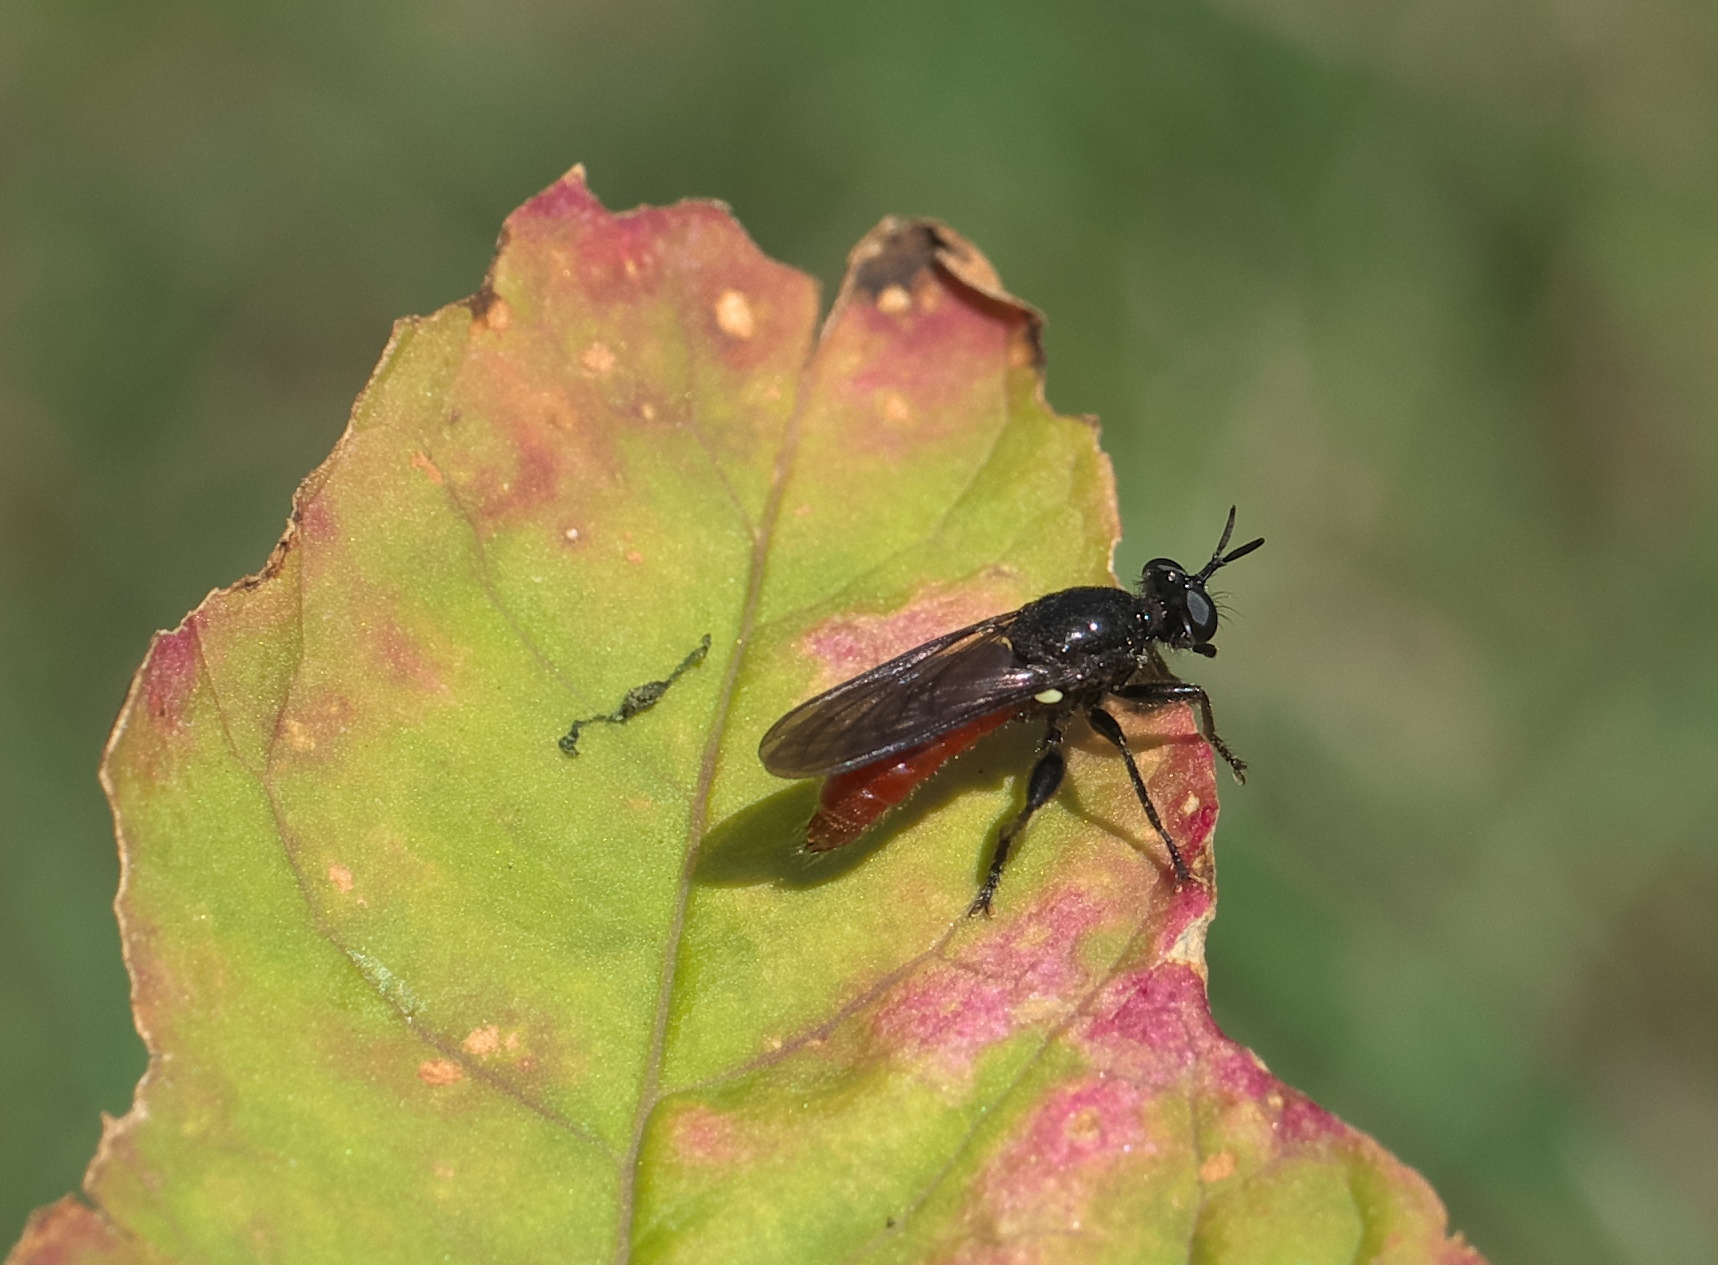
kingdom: Animalia
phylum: Arthropoda
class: Insecta
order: Diptera
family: Asilidae
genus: Lampria
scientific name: Lampria bicolor
